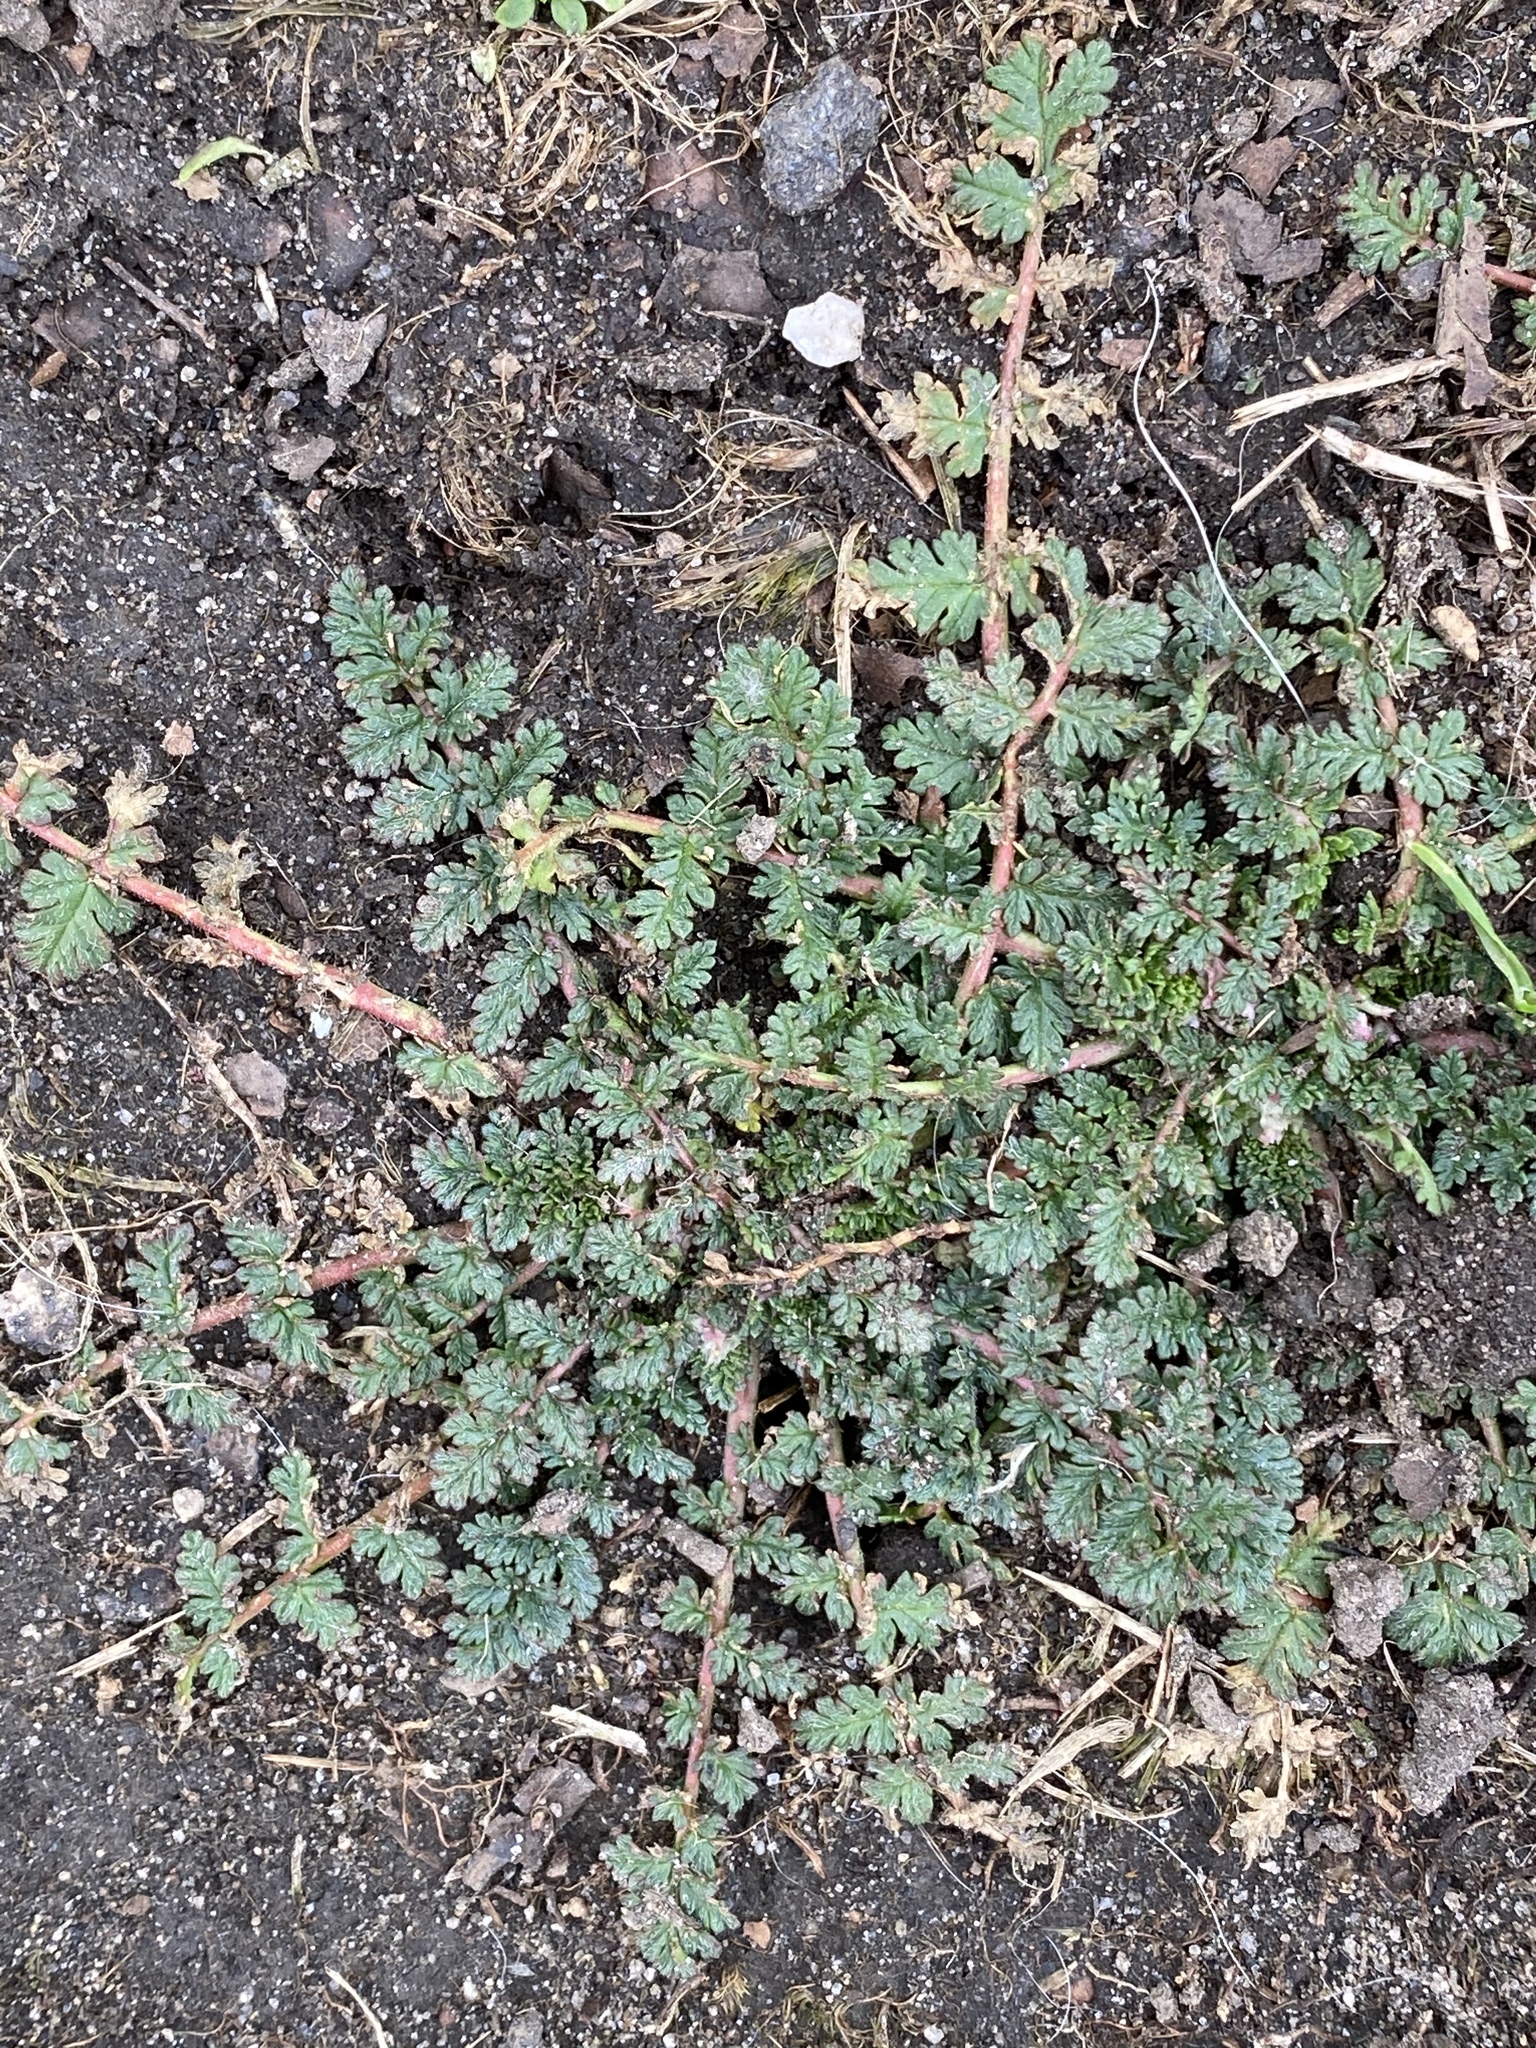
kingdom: Plantae
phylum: Tracheophyta
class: Magnoliopsida
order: Geraniales
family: Geraniaceae
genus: Erodium
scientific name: Erodium cicutarium
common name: Common stork's-bill
